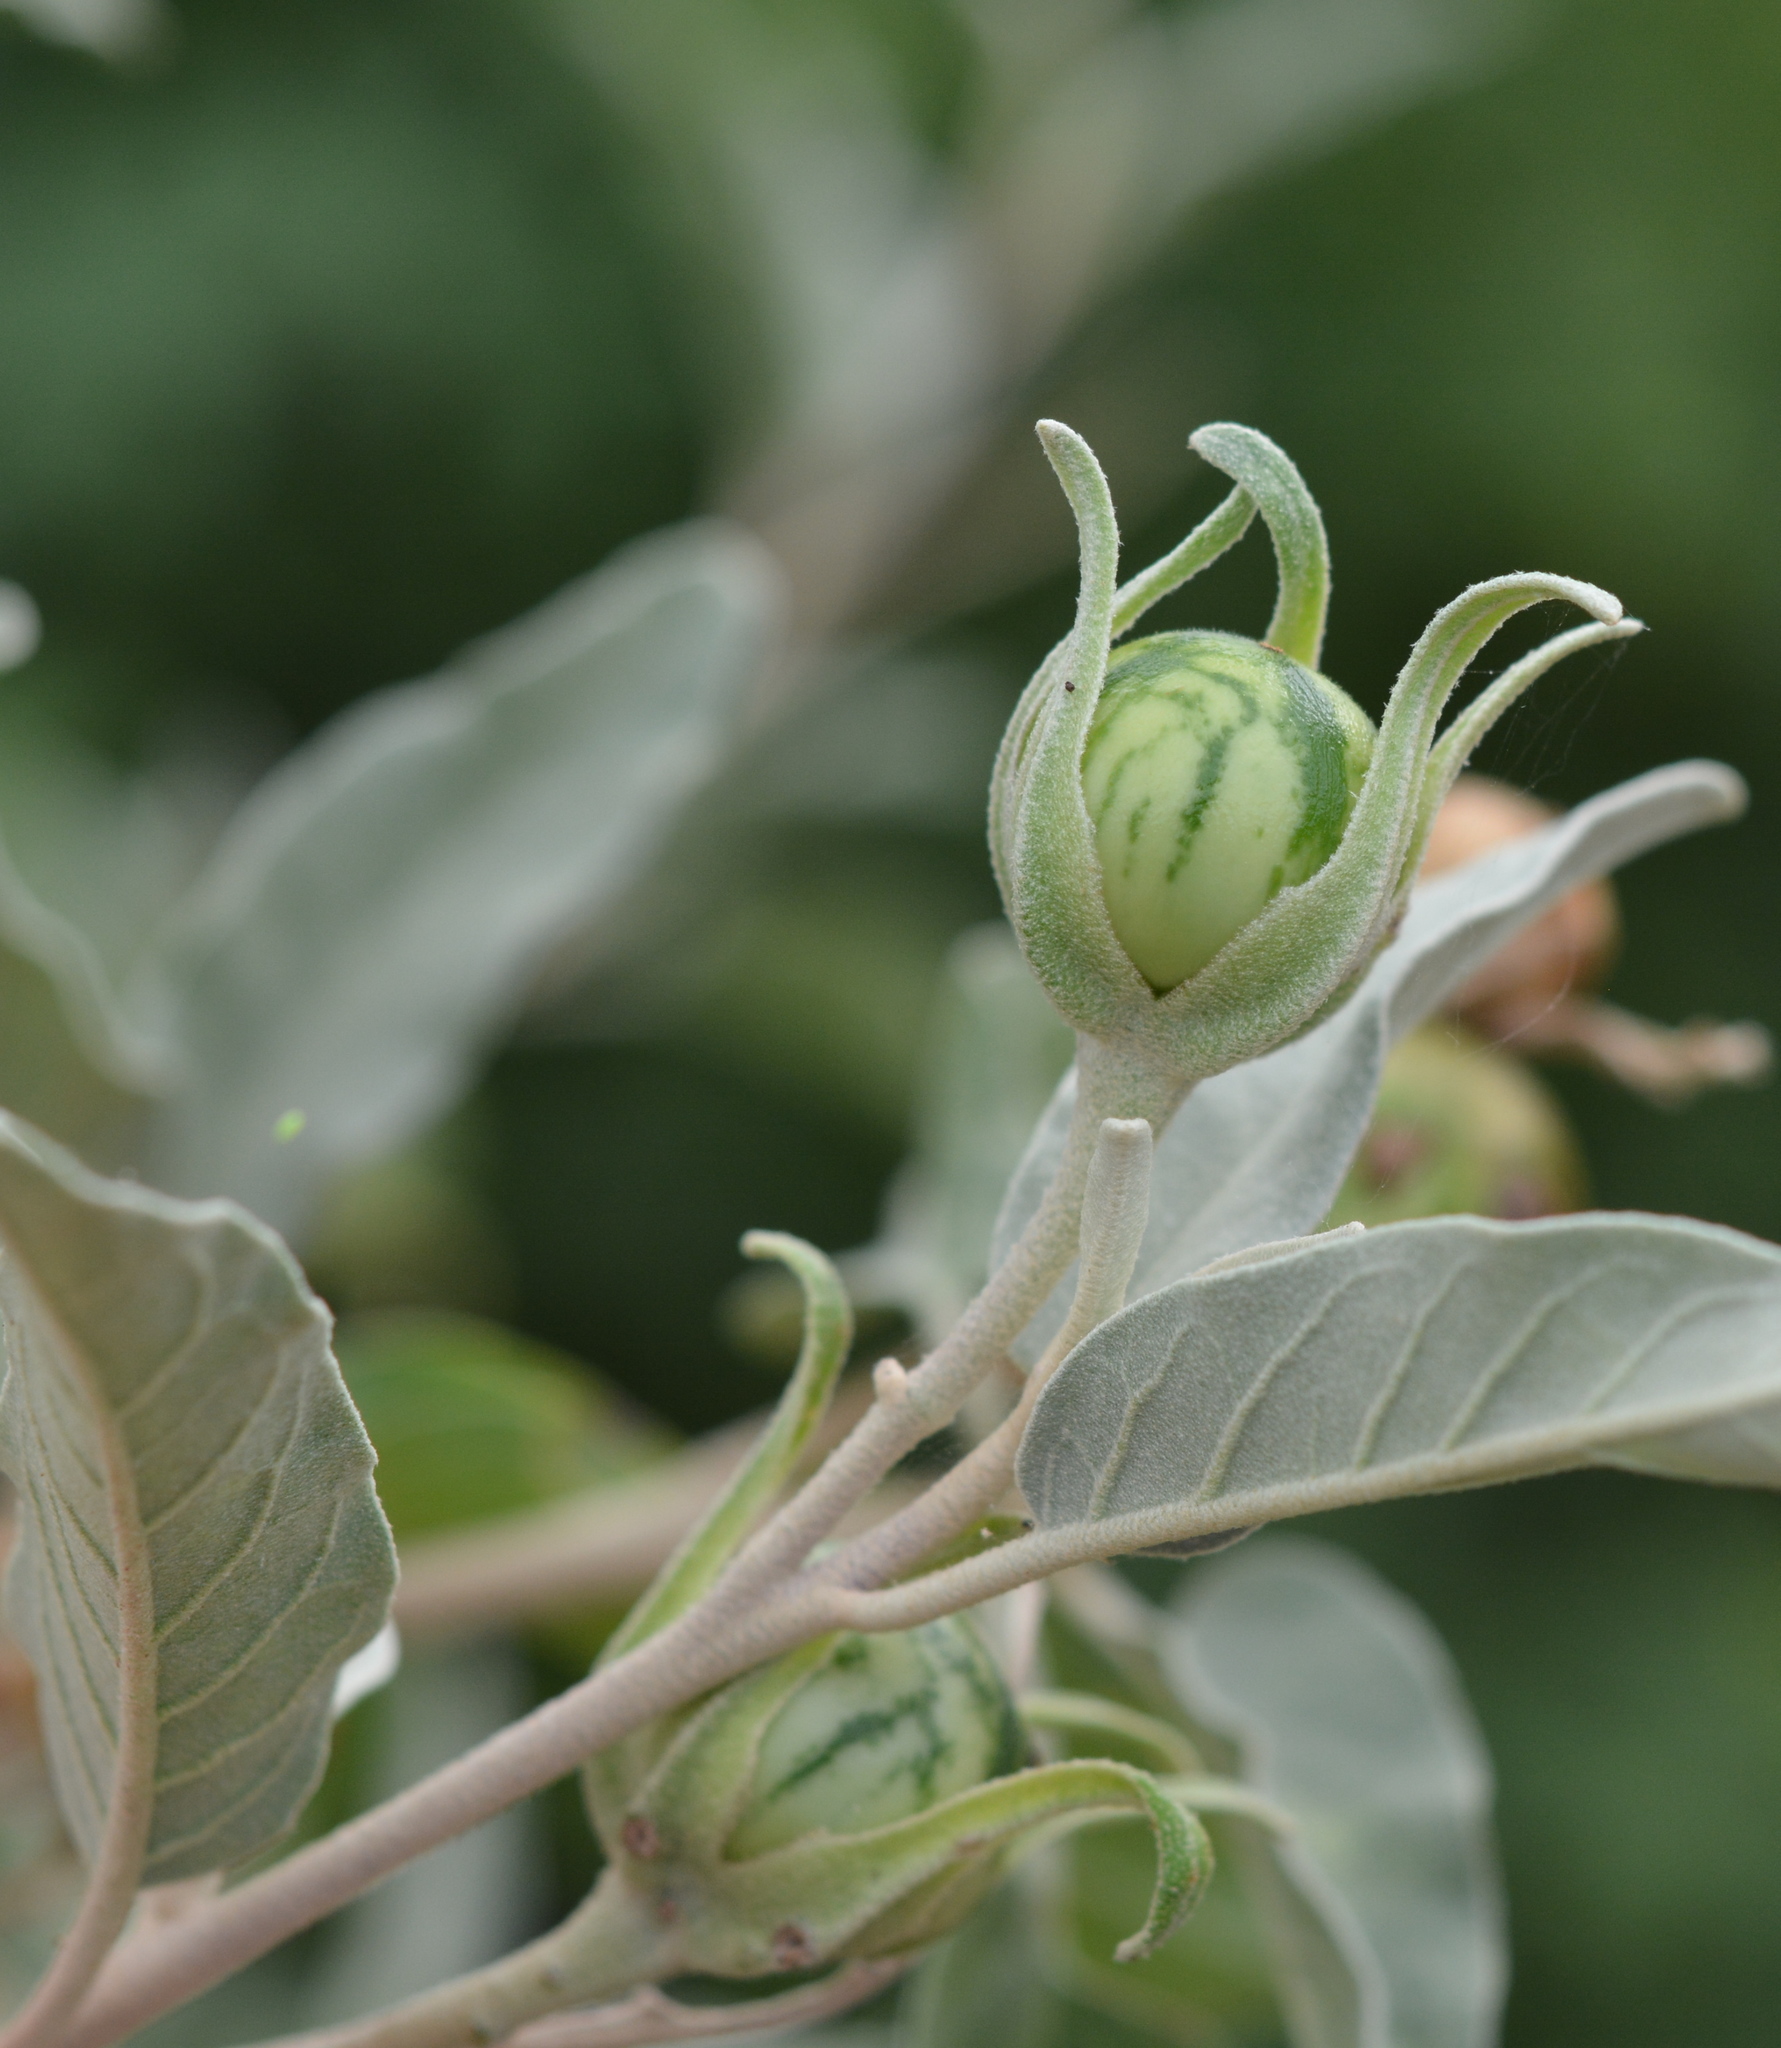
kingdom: Plantae
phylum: Tracheophyta
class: Magnoliopsida
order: Solanales
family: Solanaceae
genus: Solanum
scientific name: Solanum hindsianum
